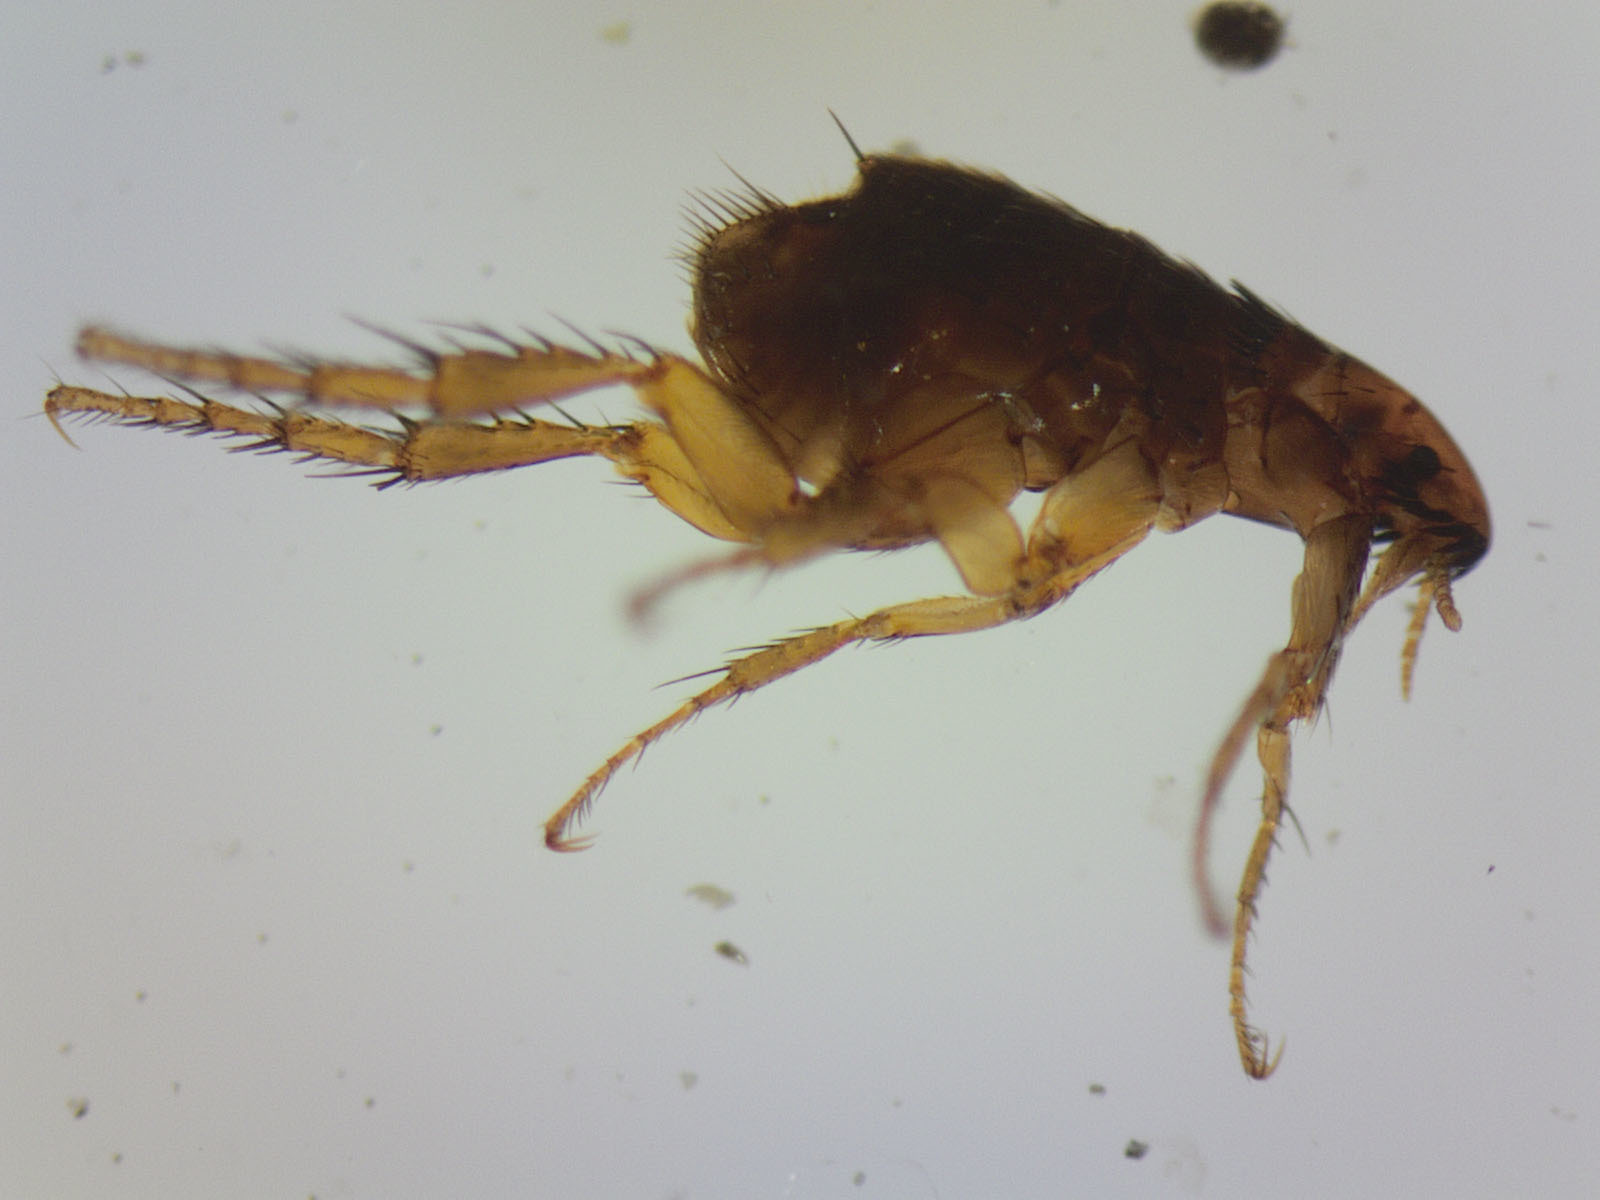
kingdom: Animalia
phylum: Arthropoda
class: Insecta
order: Siphonaptera
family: Pulicidae
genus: Ctenocephalides
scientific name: Ctenocephalides felis
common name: Cat flea
